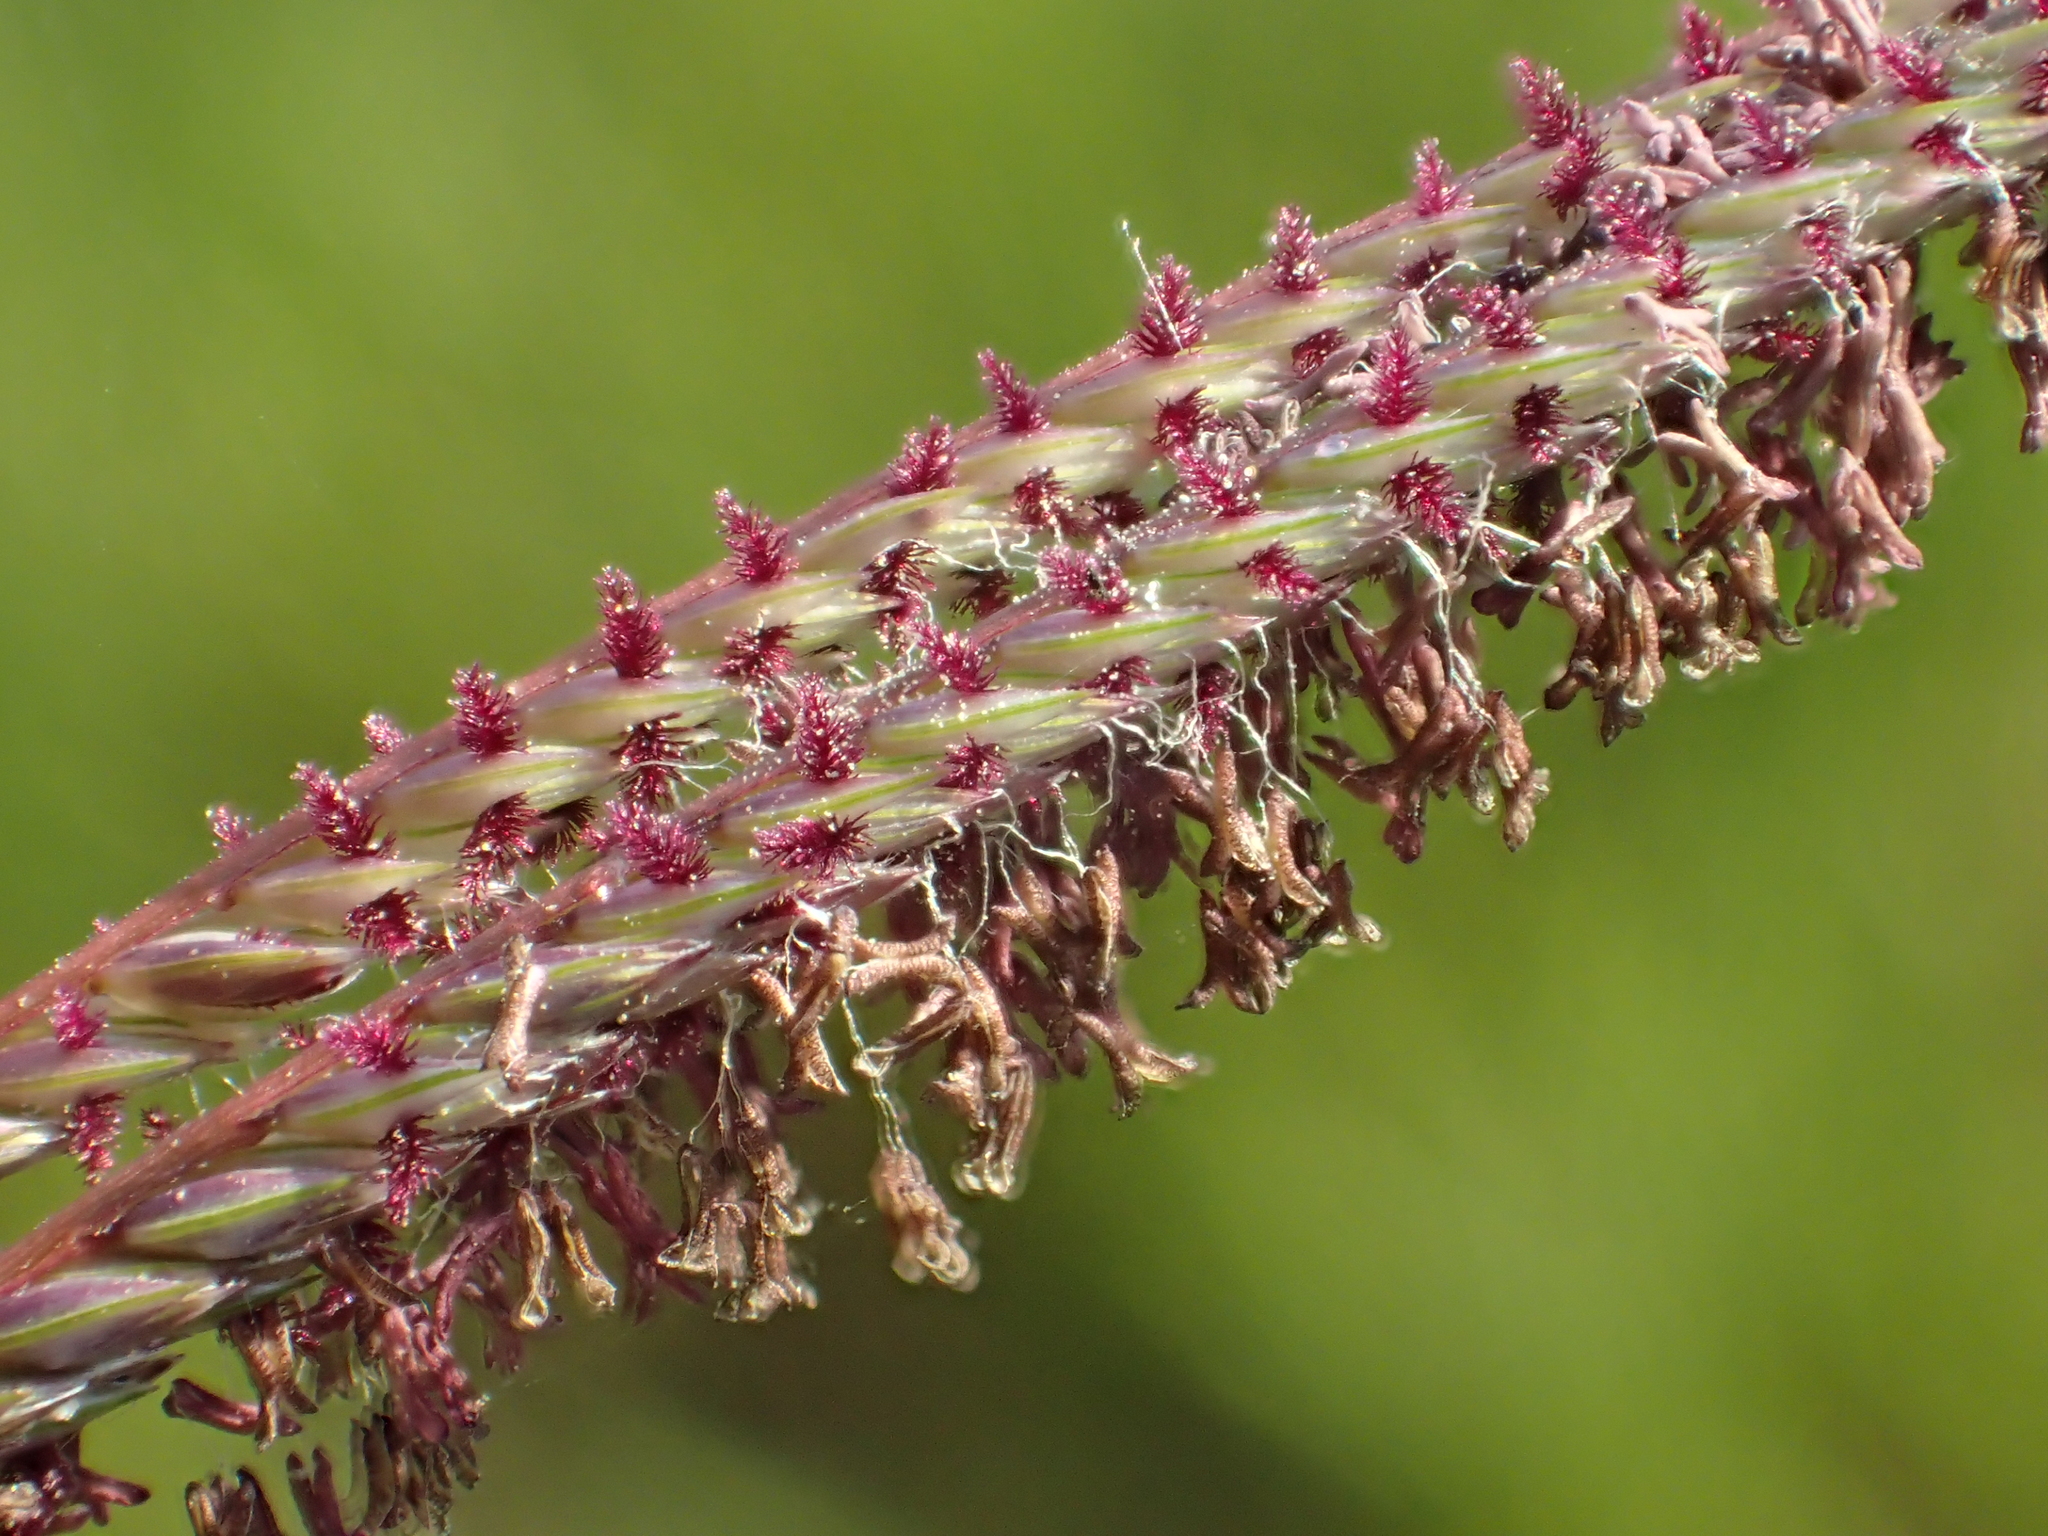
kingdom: Plantae
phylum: Tracheophyta
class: Liliopsida
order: Poales
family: Poaceae
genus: Cynodon
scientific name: Cynodon nlemfuensis
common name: African bermudagrass
